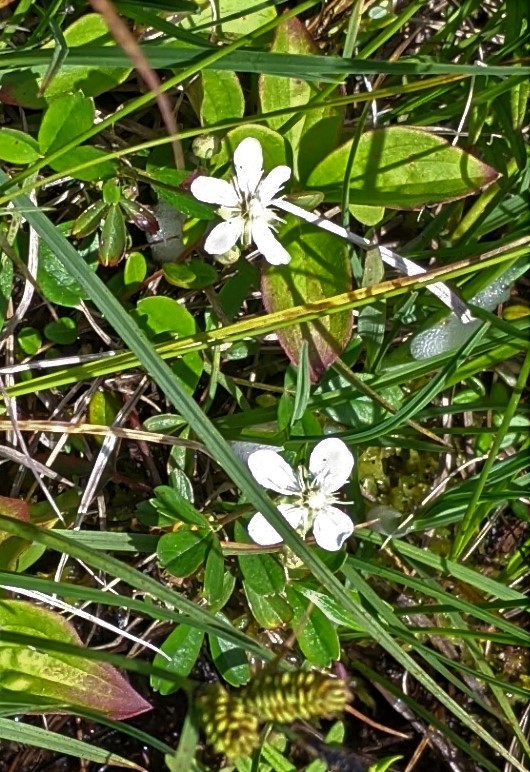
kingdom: Plantae
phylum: Tracheophyta
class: Magnoliopsida
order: Rosales
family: Rosaceae
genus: Sibbaldia
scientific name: Sibbaldia tridentata
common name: Three-toothed cinquefoil
